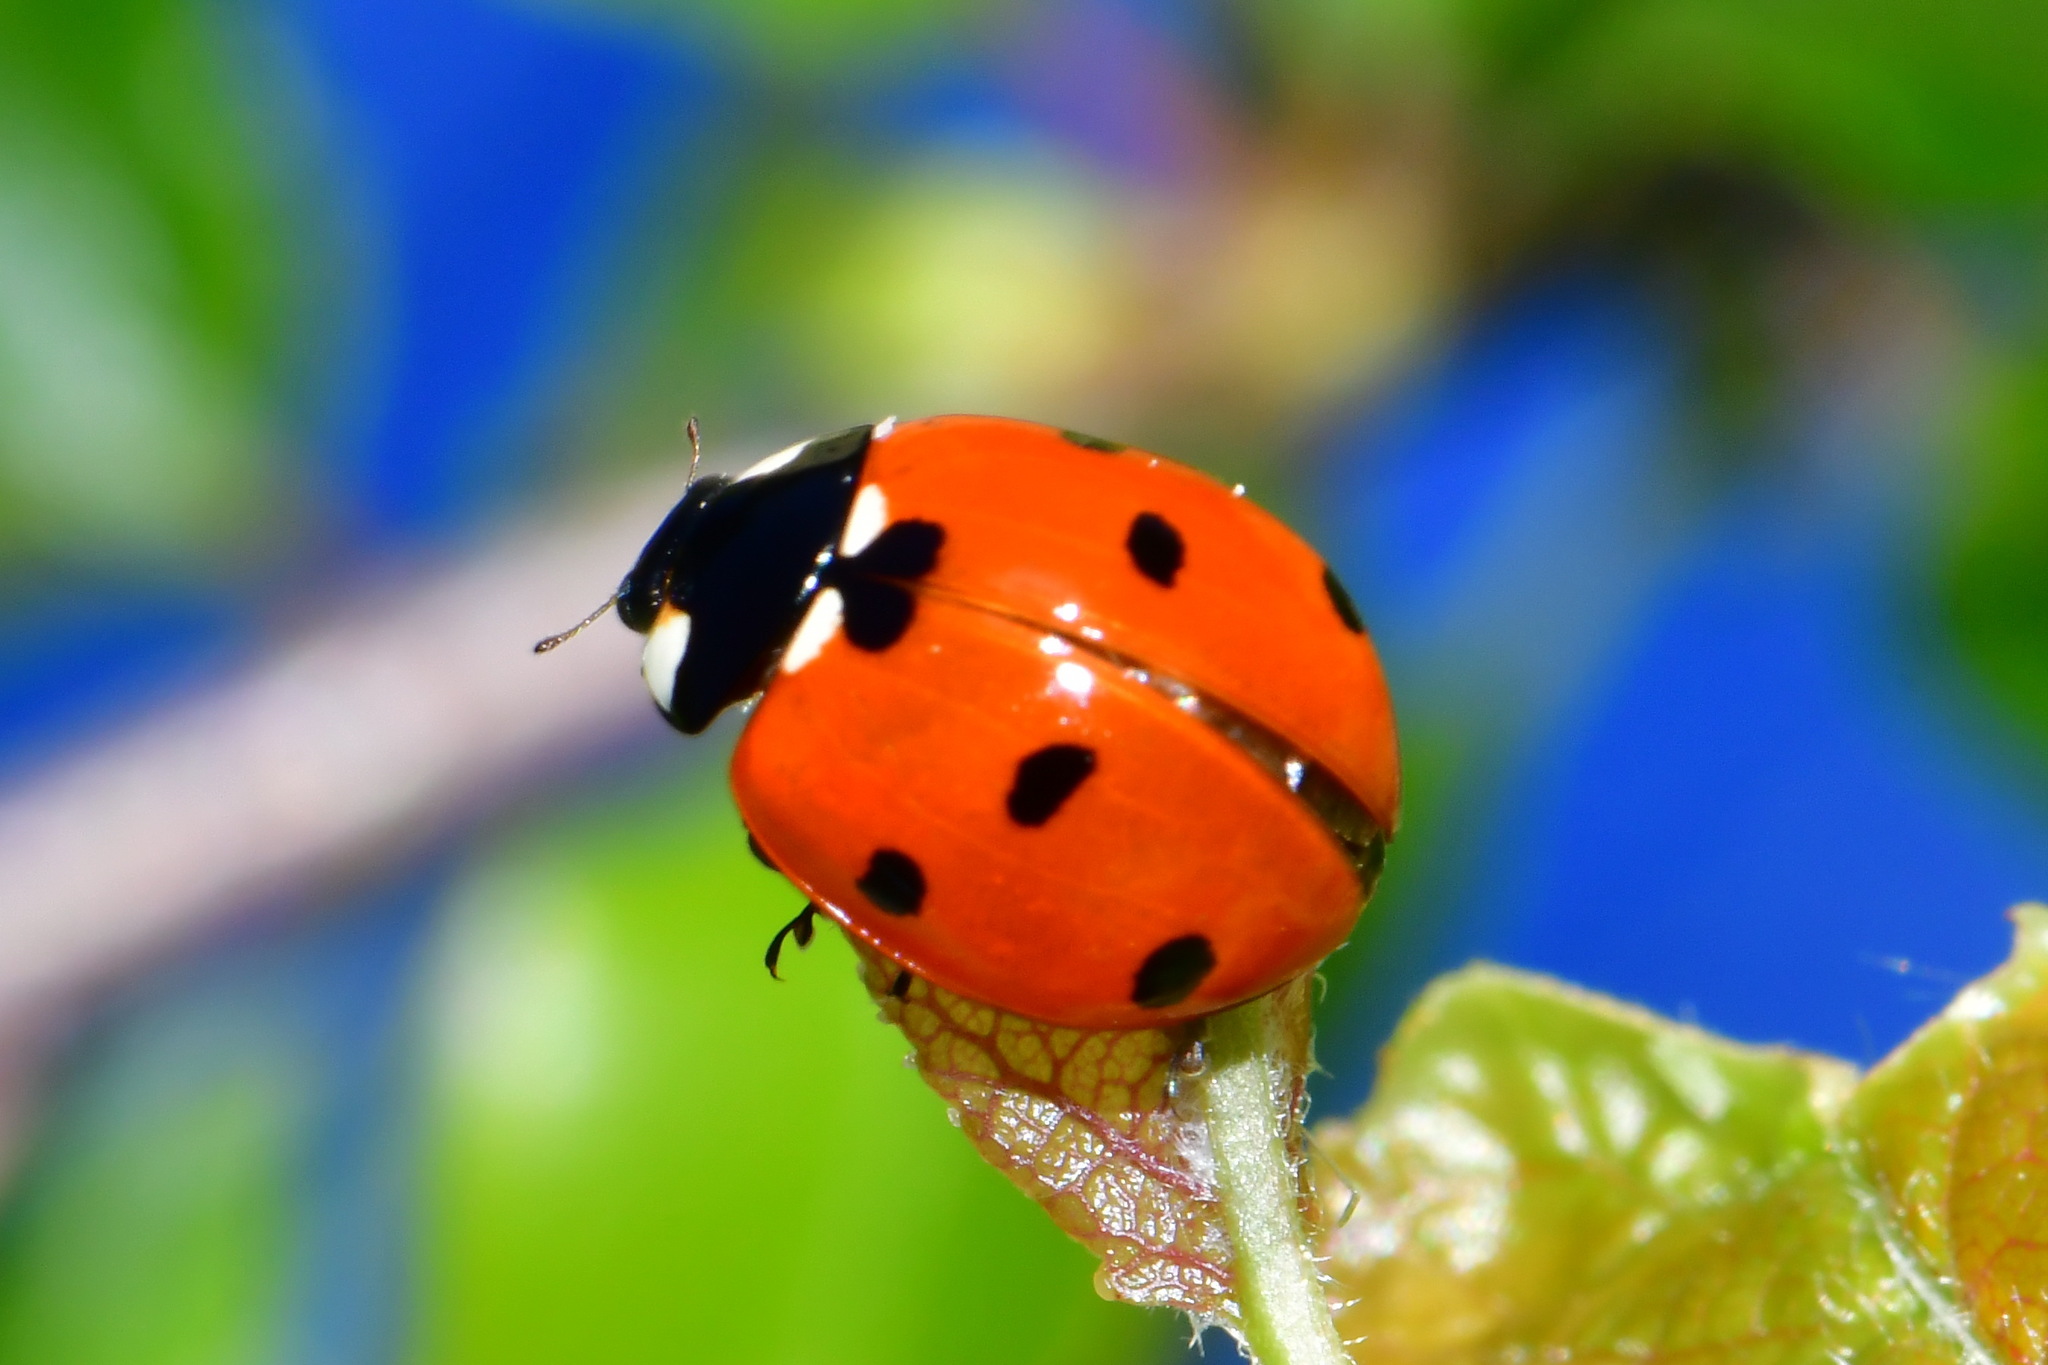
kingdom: Animalia
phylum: Arthropoda
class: Insecta
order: Coleoptera
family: Coccinellidae
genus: Coccinella
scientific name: Coccinella septempunctata
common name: Sevenspotted lady beetle
